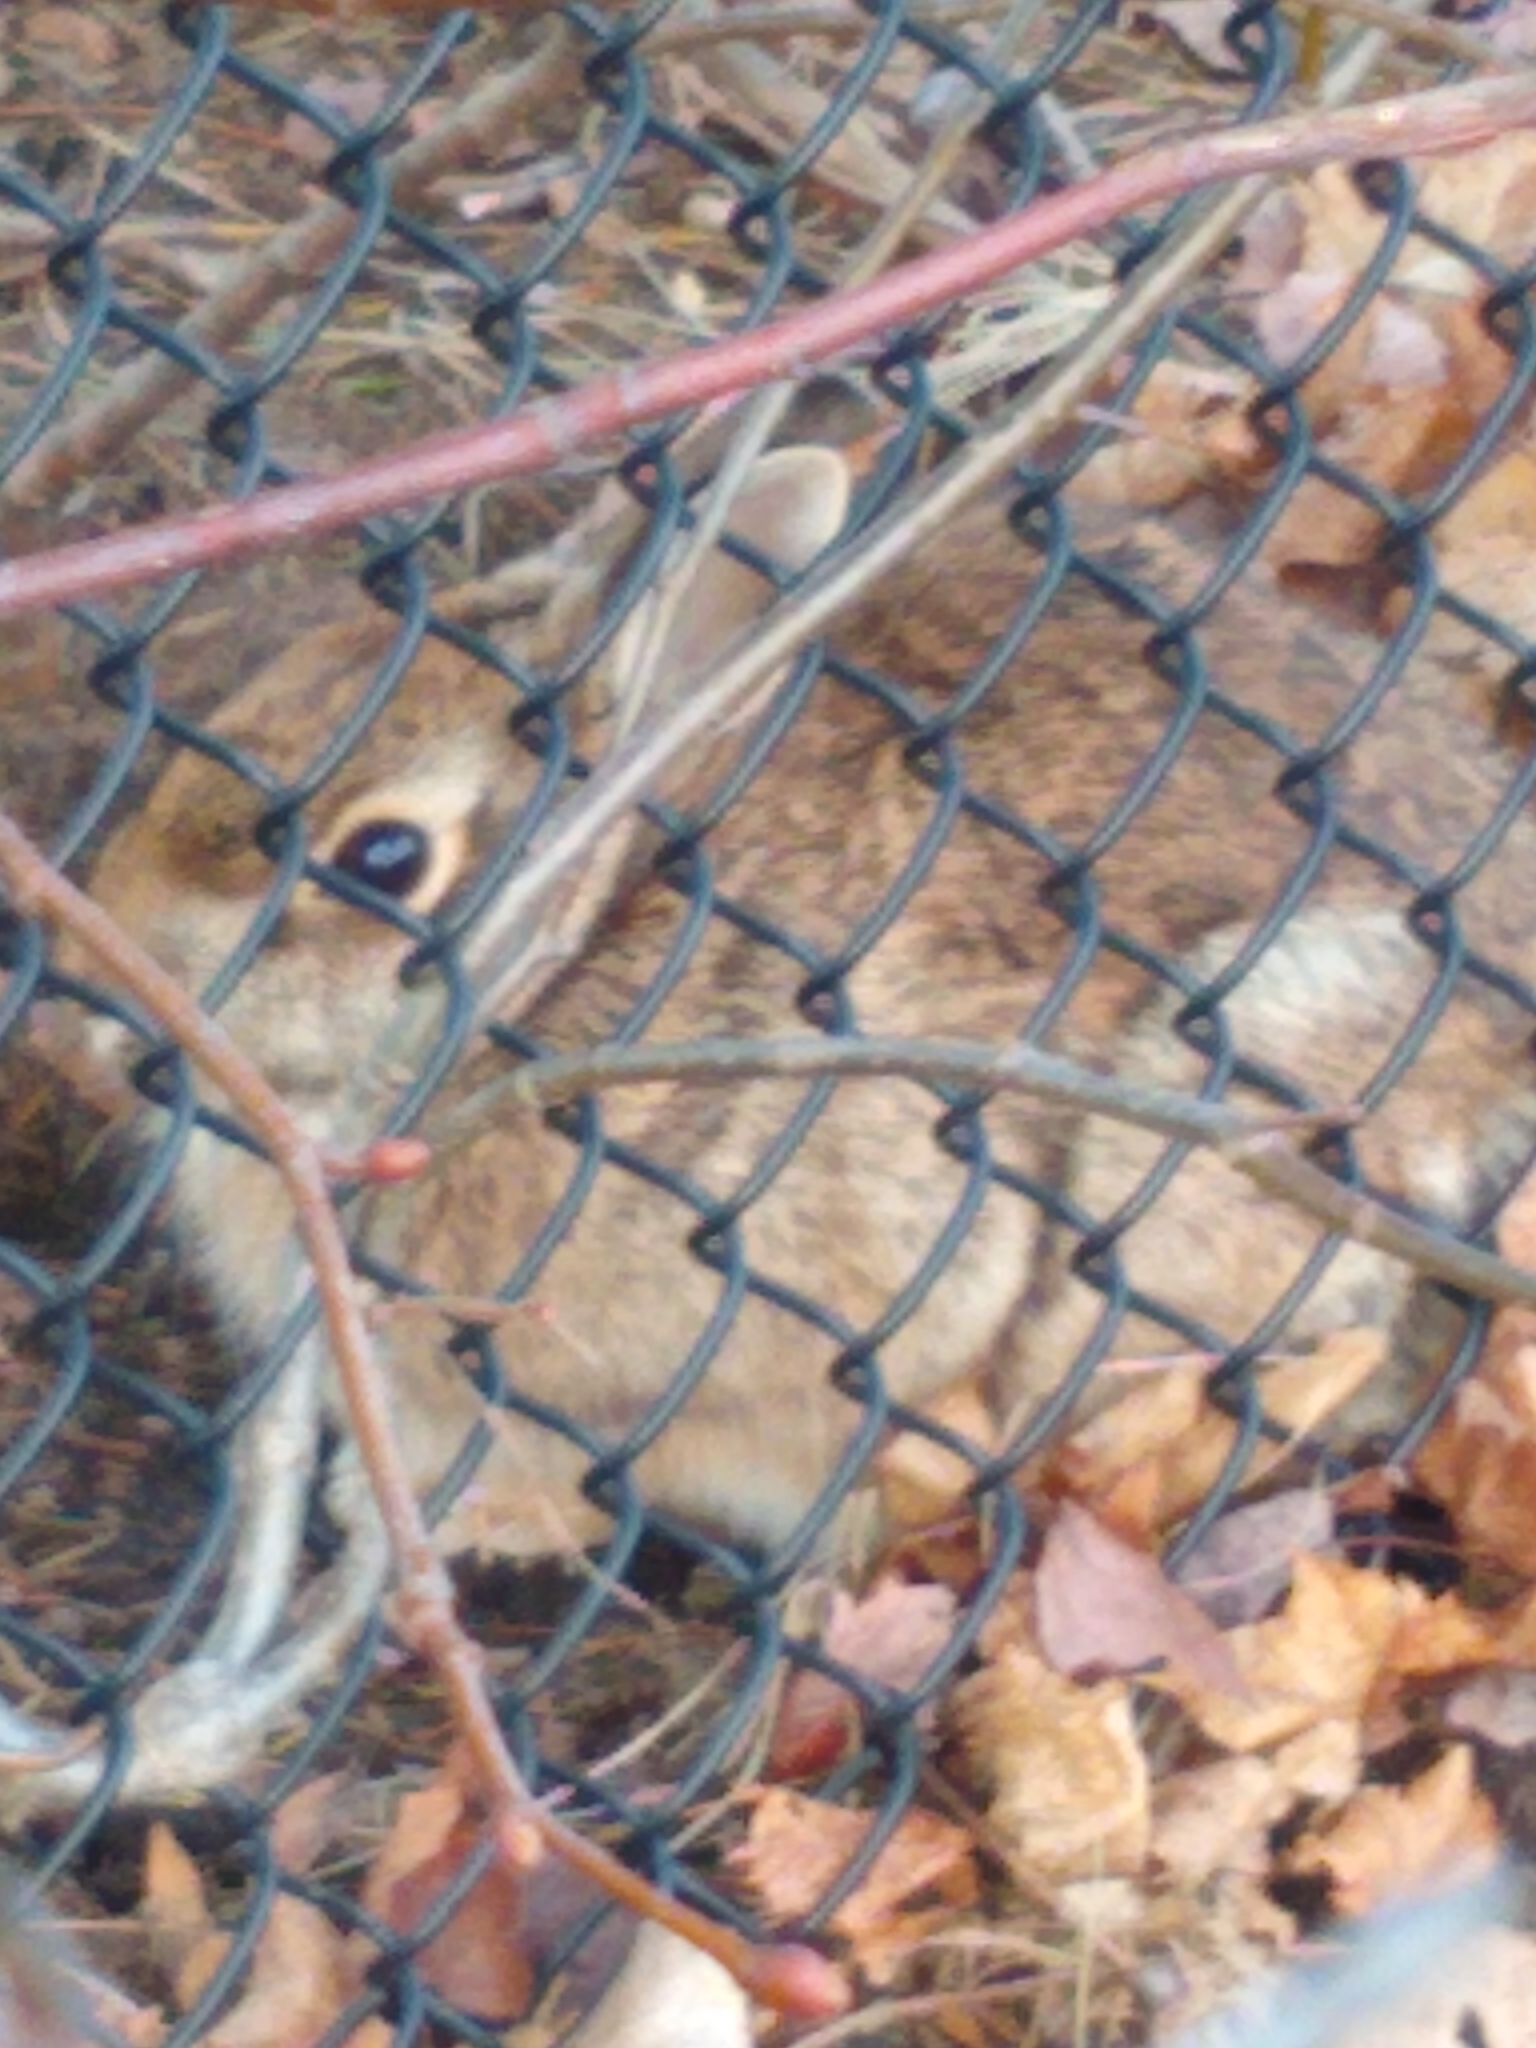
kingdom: Animalia
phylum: Chordata
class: Mammalia
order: Lagomorpha
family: Leporidae
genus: Sylvilagus
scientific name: Sylvilagus floridanus
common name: Eastern cottontail
